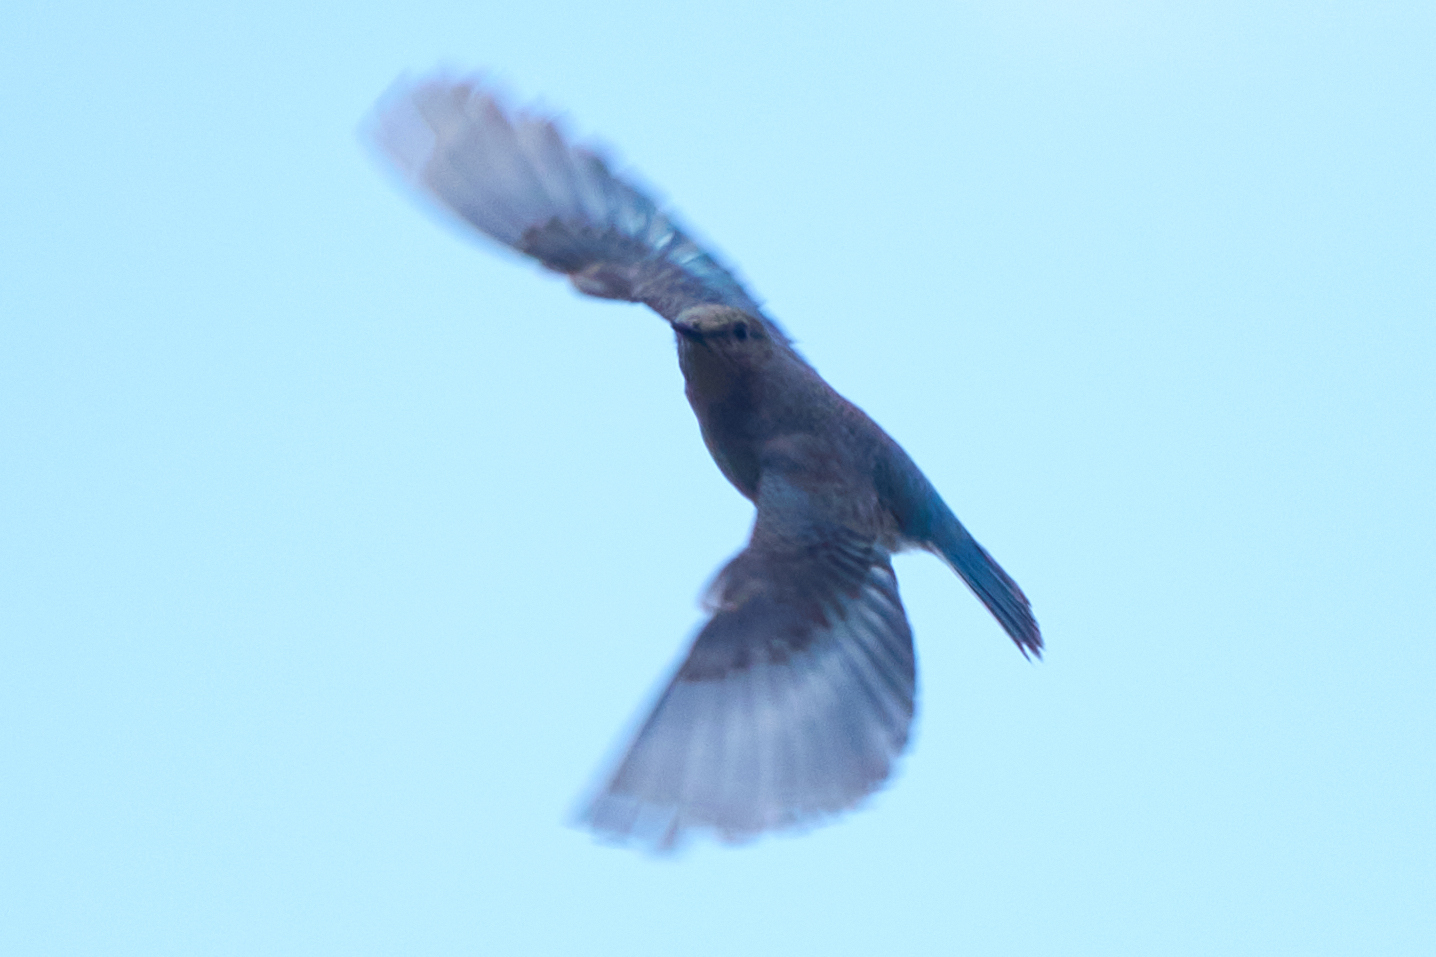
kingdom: Animalia
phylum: Chordata
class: Aves
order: Passeriformes
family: Turdidae
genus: Sialia
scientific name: Sialia currucoides
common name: Mountain bluebird
